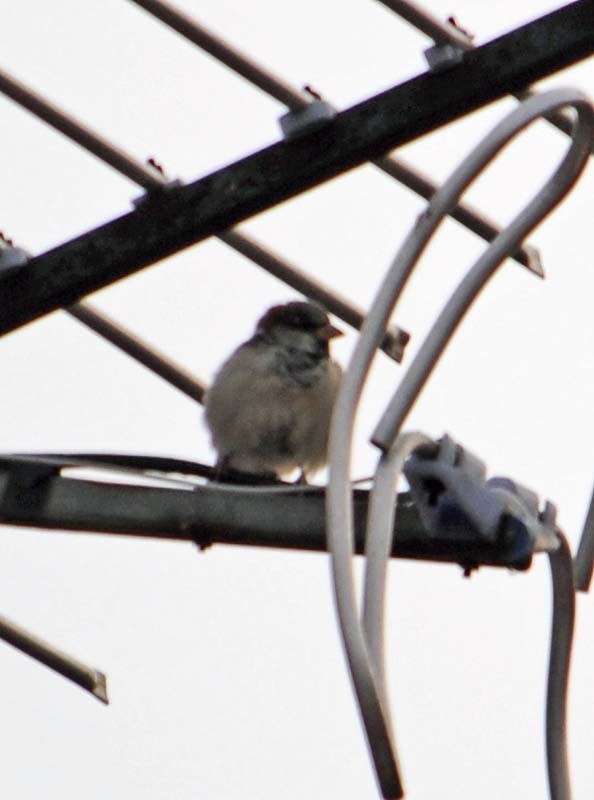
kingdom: Animalia
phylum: Chordata
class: Aves
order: Passeriformes
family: Passeridae
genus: Passer
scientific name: Passer domesticus
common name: House sparrow
